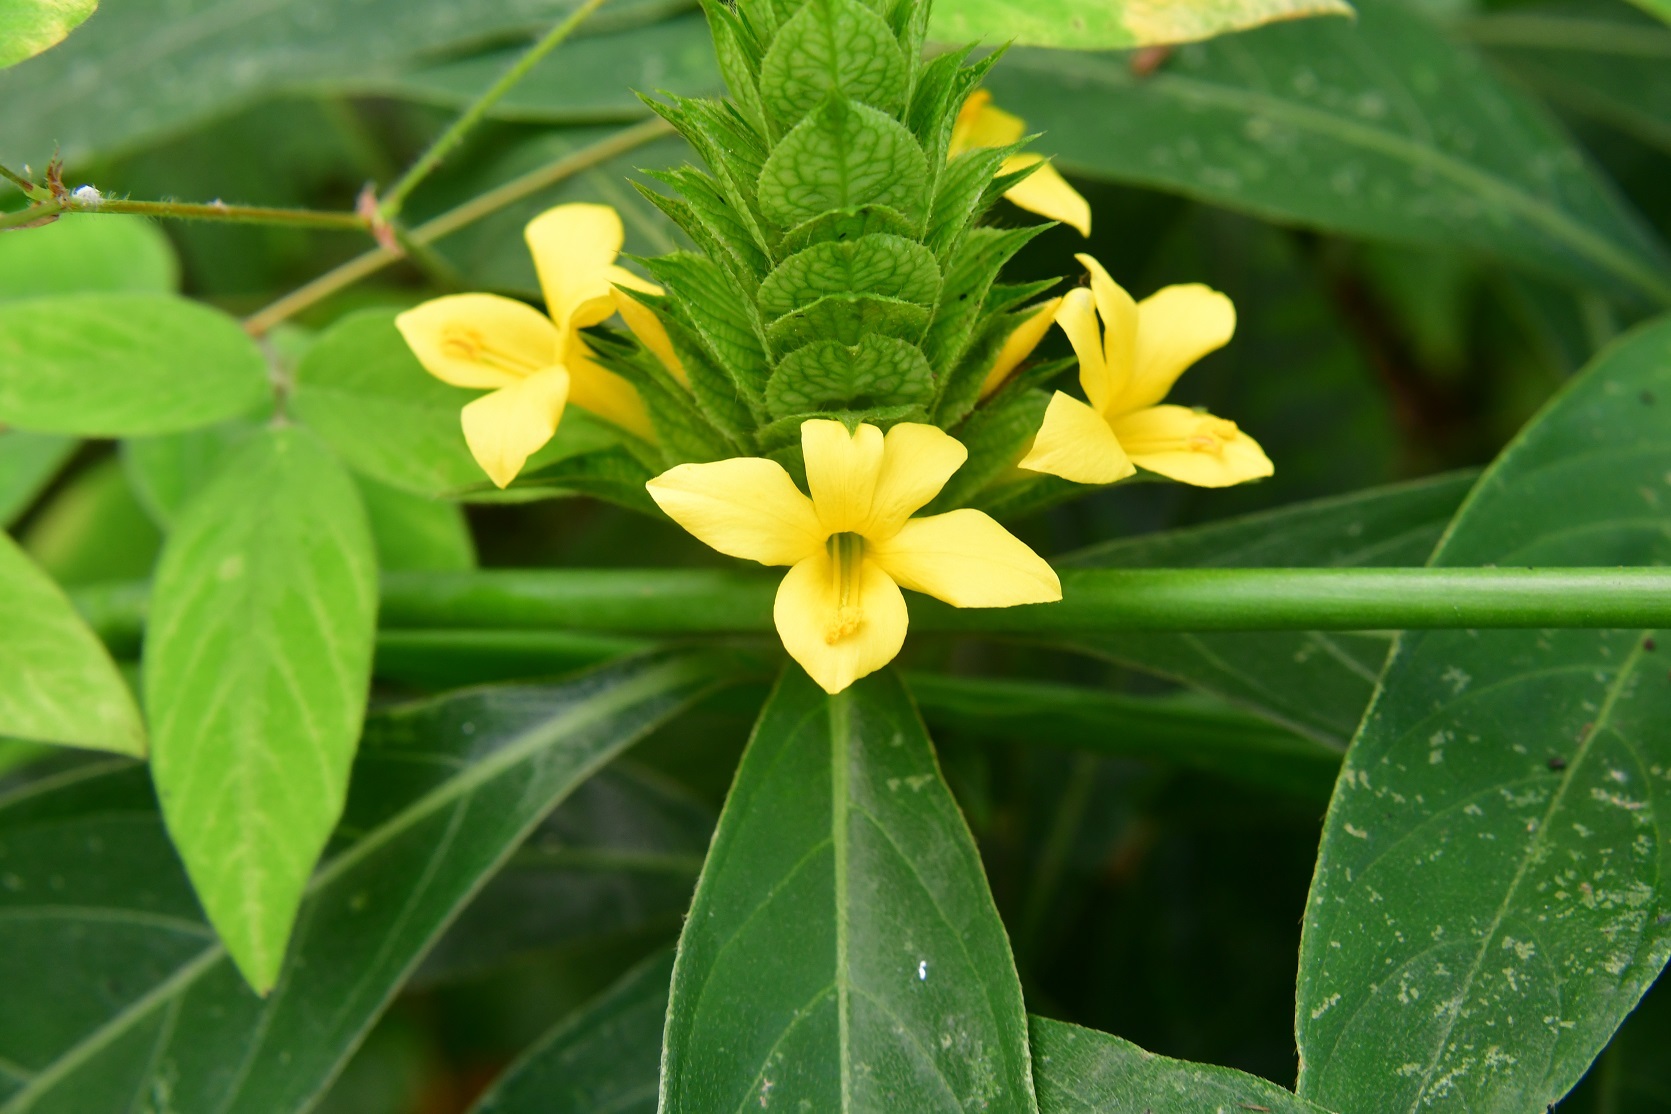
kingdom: Plantae
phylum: Tracheophyta
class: Magnoliopsida
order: Lamiales
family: Acanthaceae
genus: Barleria
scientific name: Barleria oenotheroides
